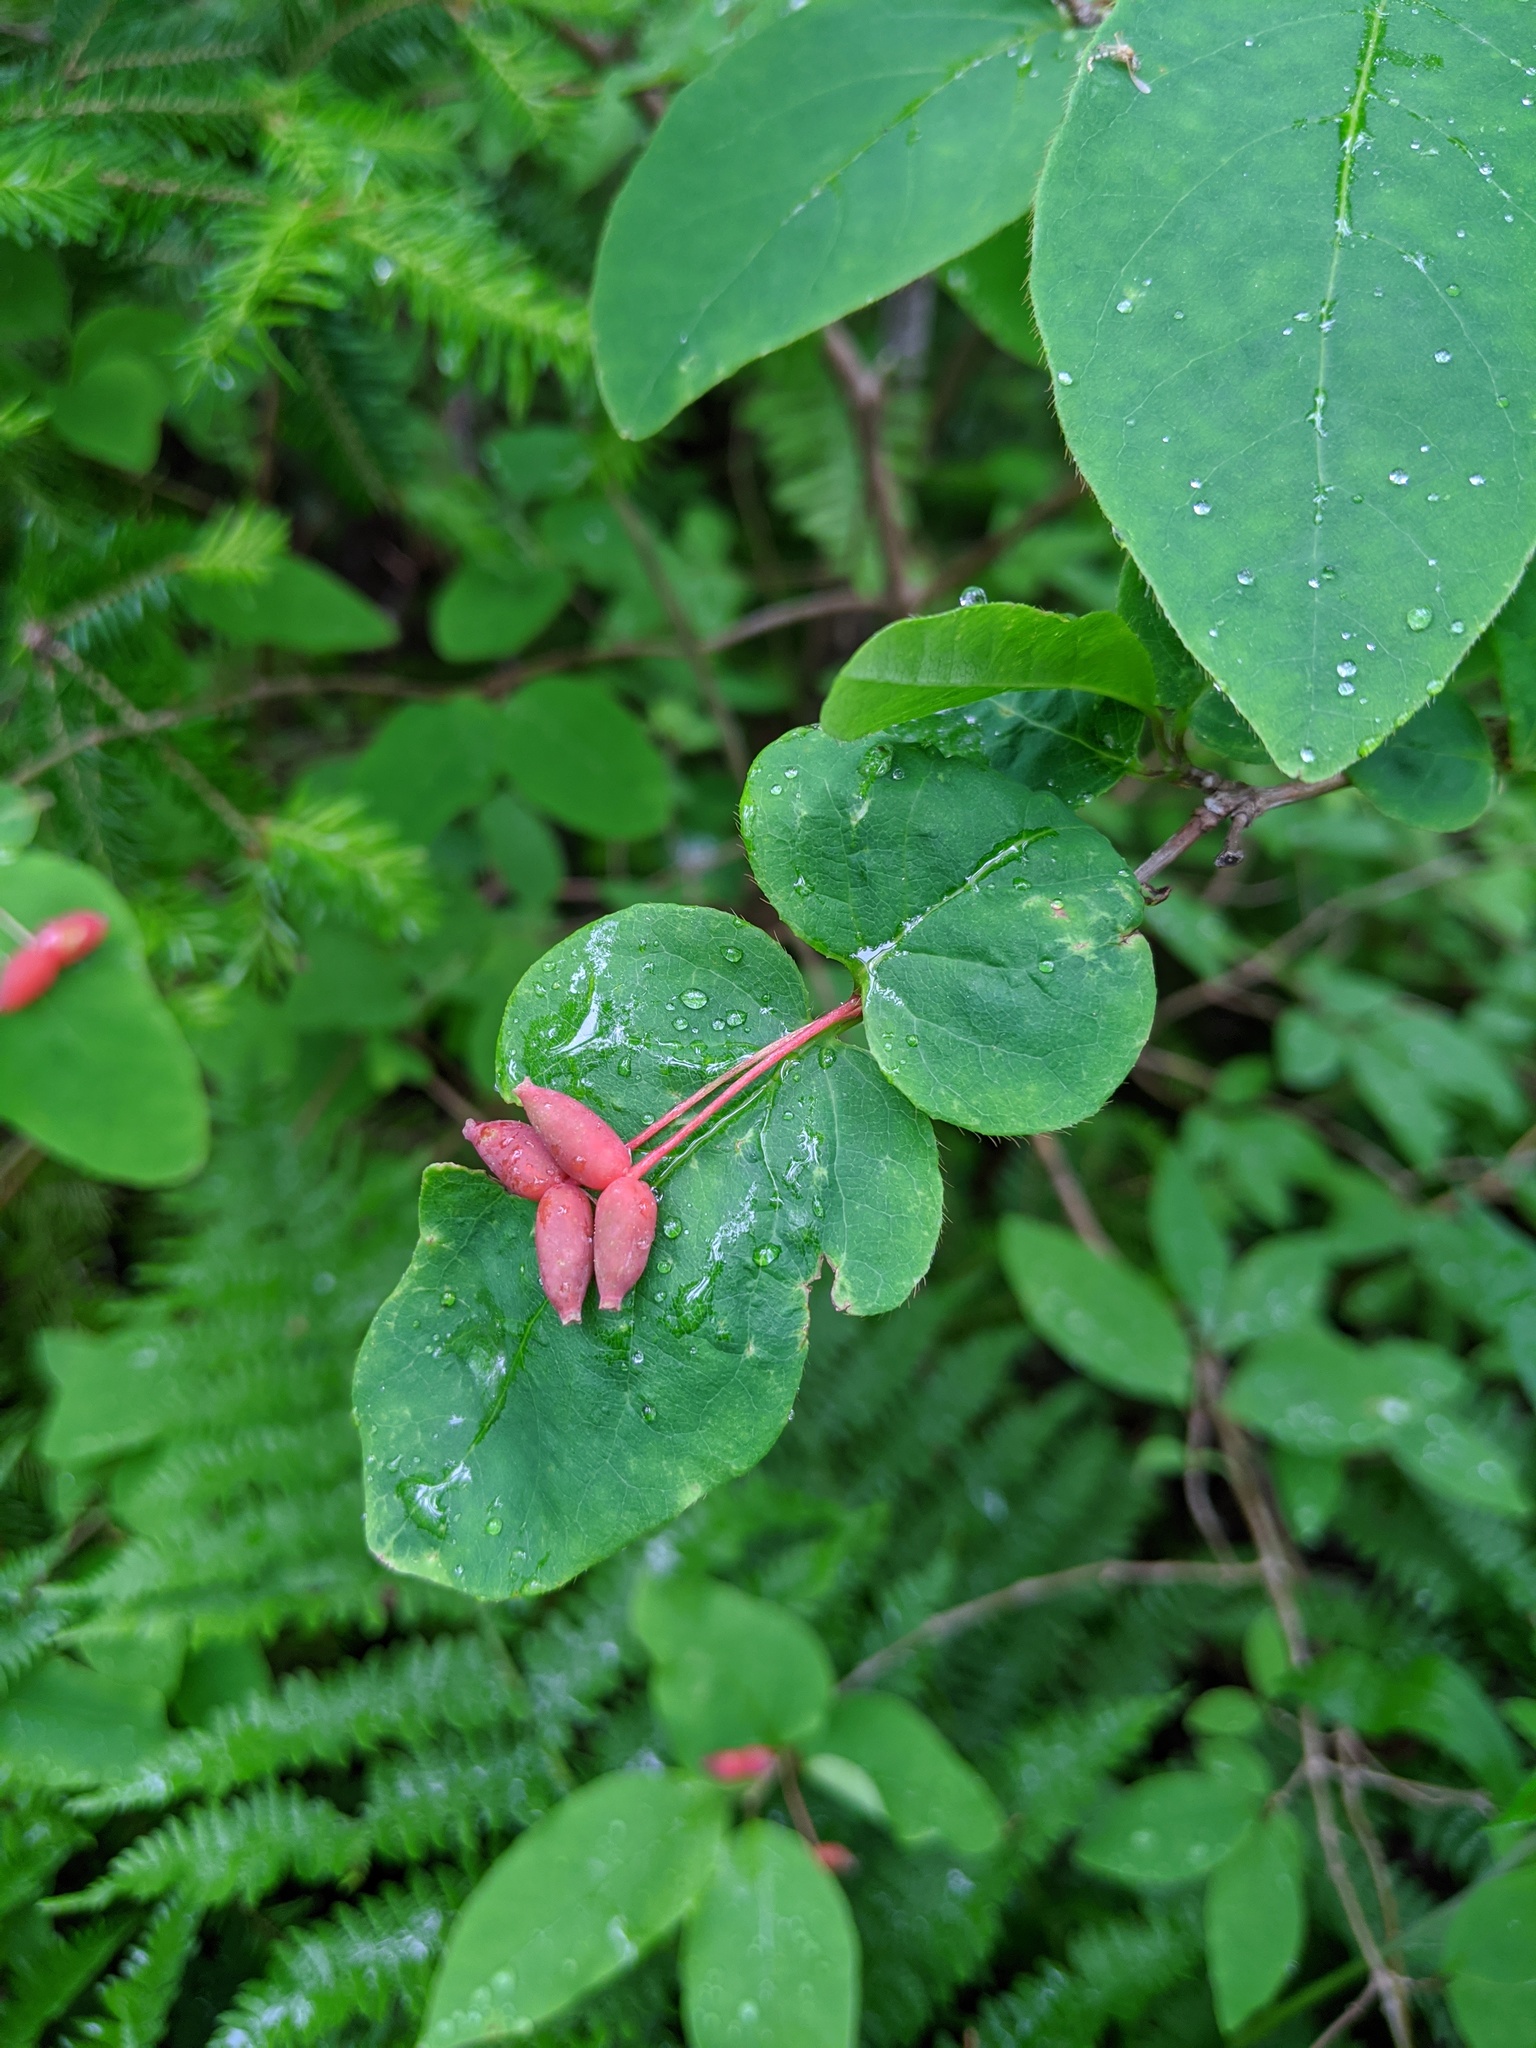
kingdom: Plantae
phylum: Tracheophyta
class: Magnoliopsida
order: Dipsacales
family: Caprifoliaceae
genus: Lonicera
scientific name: Lonicera canadensis
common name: American fly-honeysuckle
